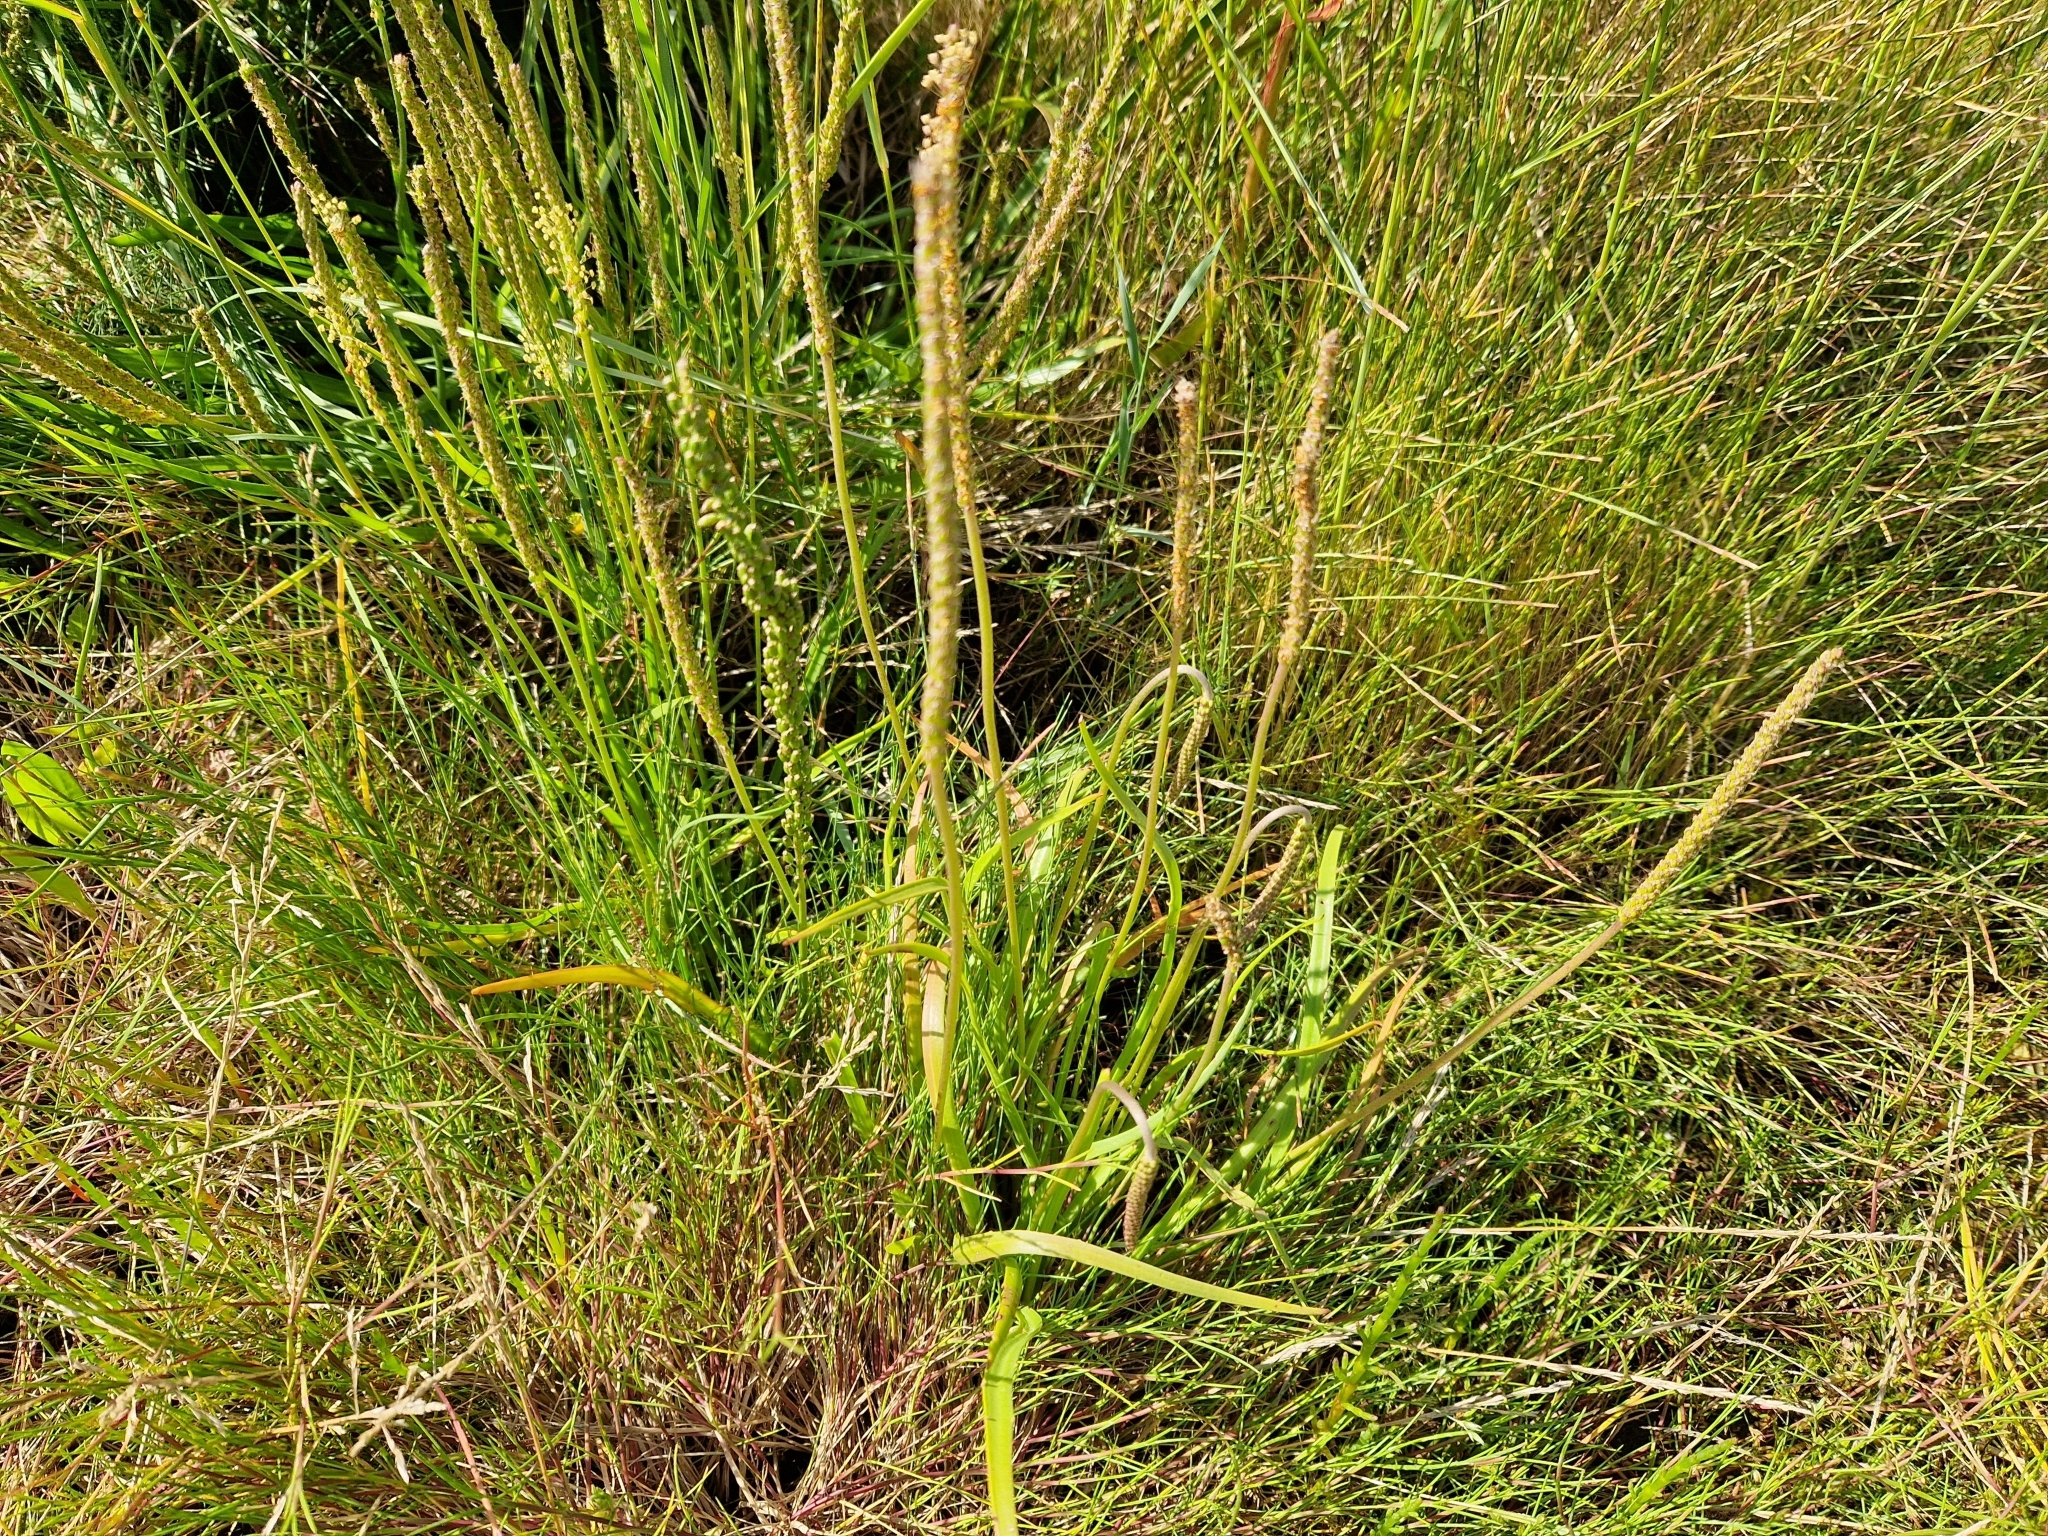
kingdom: Plantae
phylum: Tracheophyta
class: Liliopsida
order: Alismatales
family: Juncaginaceae
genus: Triglochin
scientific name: Triglochin maritima
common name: Sea arrowgrass
